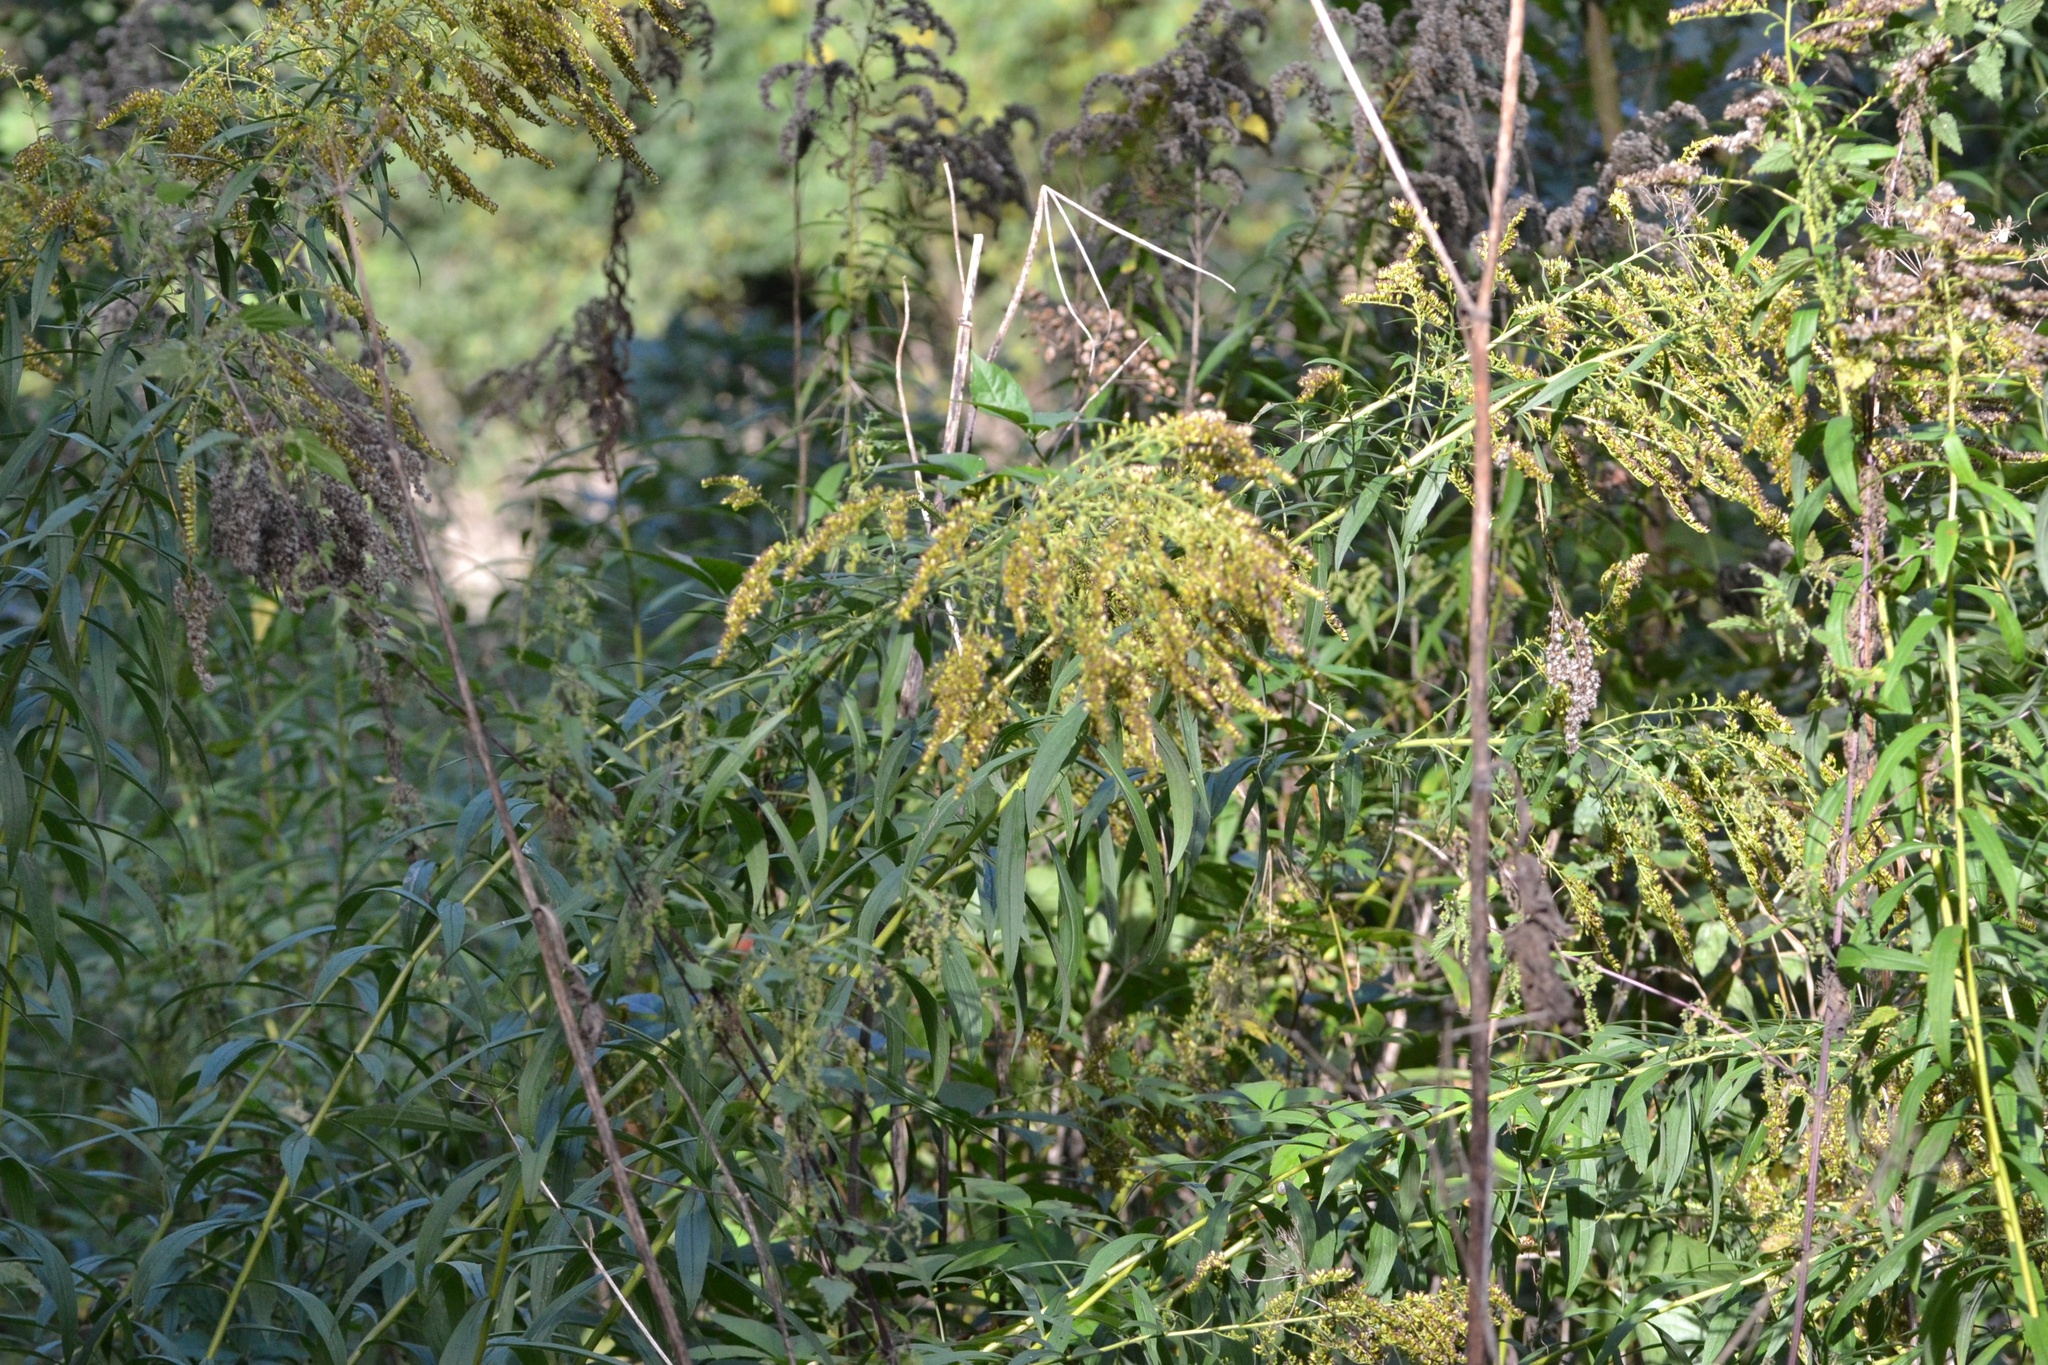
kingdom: Plantae
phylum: Tracheophyta
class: Magnoliopsida
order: Asterales
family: Asteraceae
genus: Solidago
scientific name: Solidago canadensis
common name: Canada goldenrod
